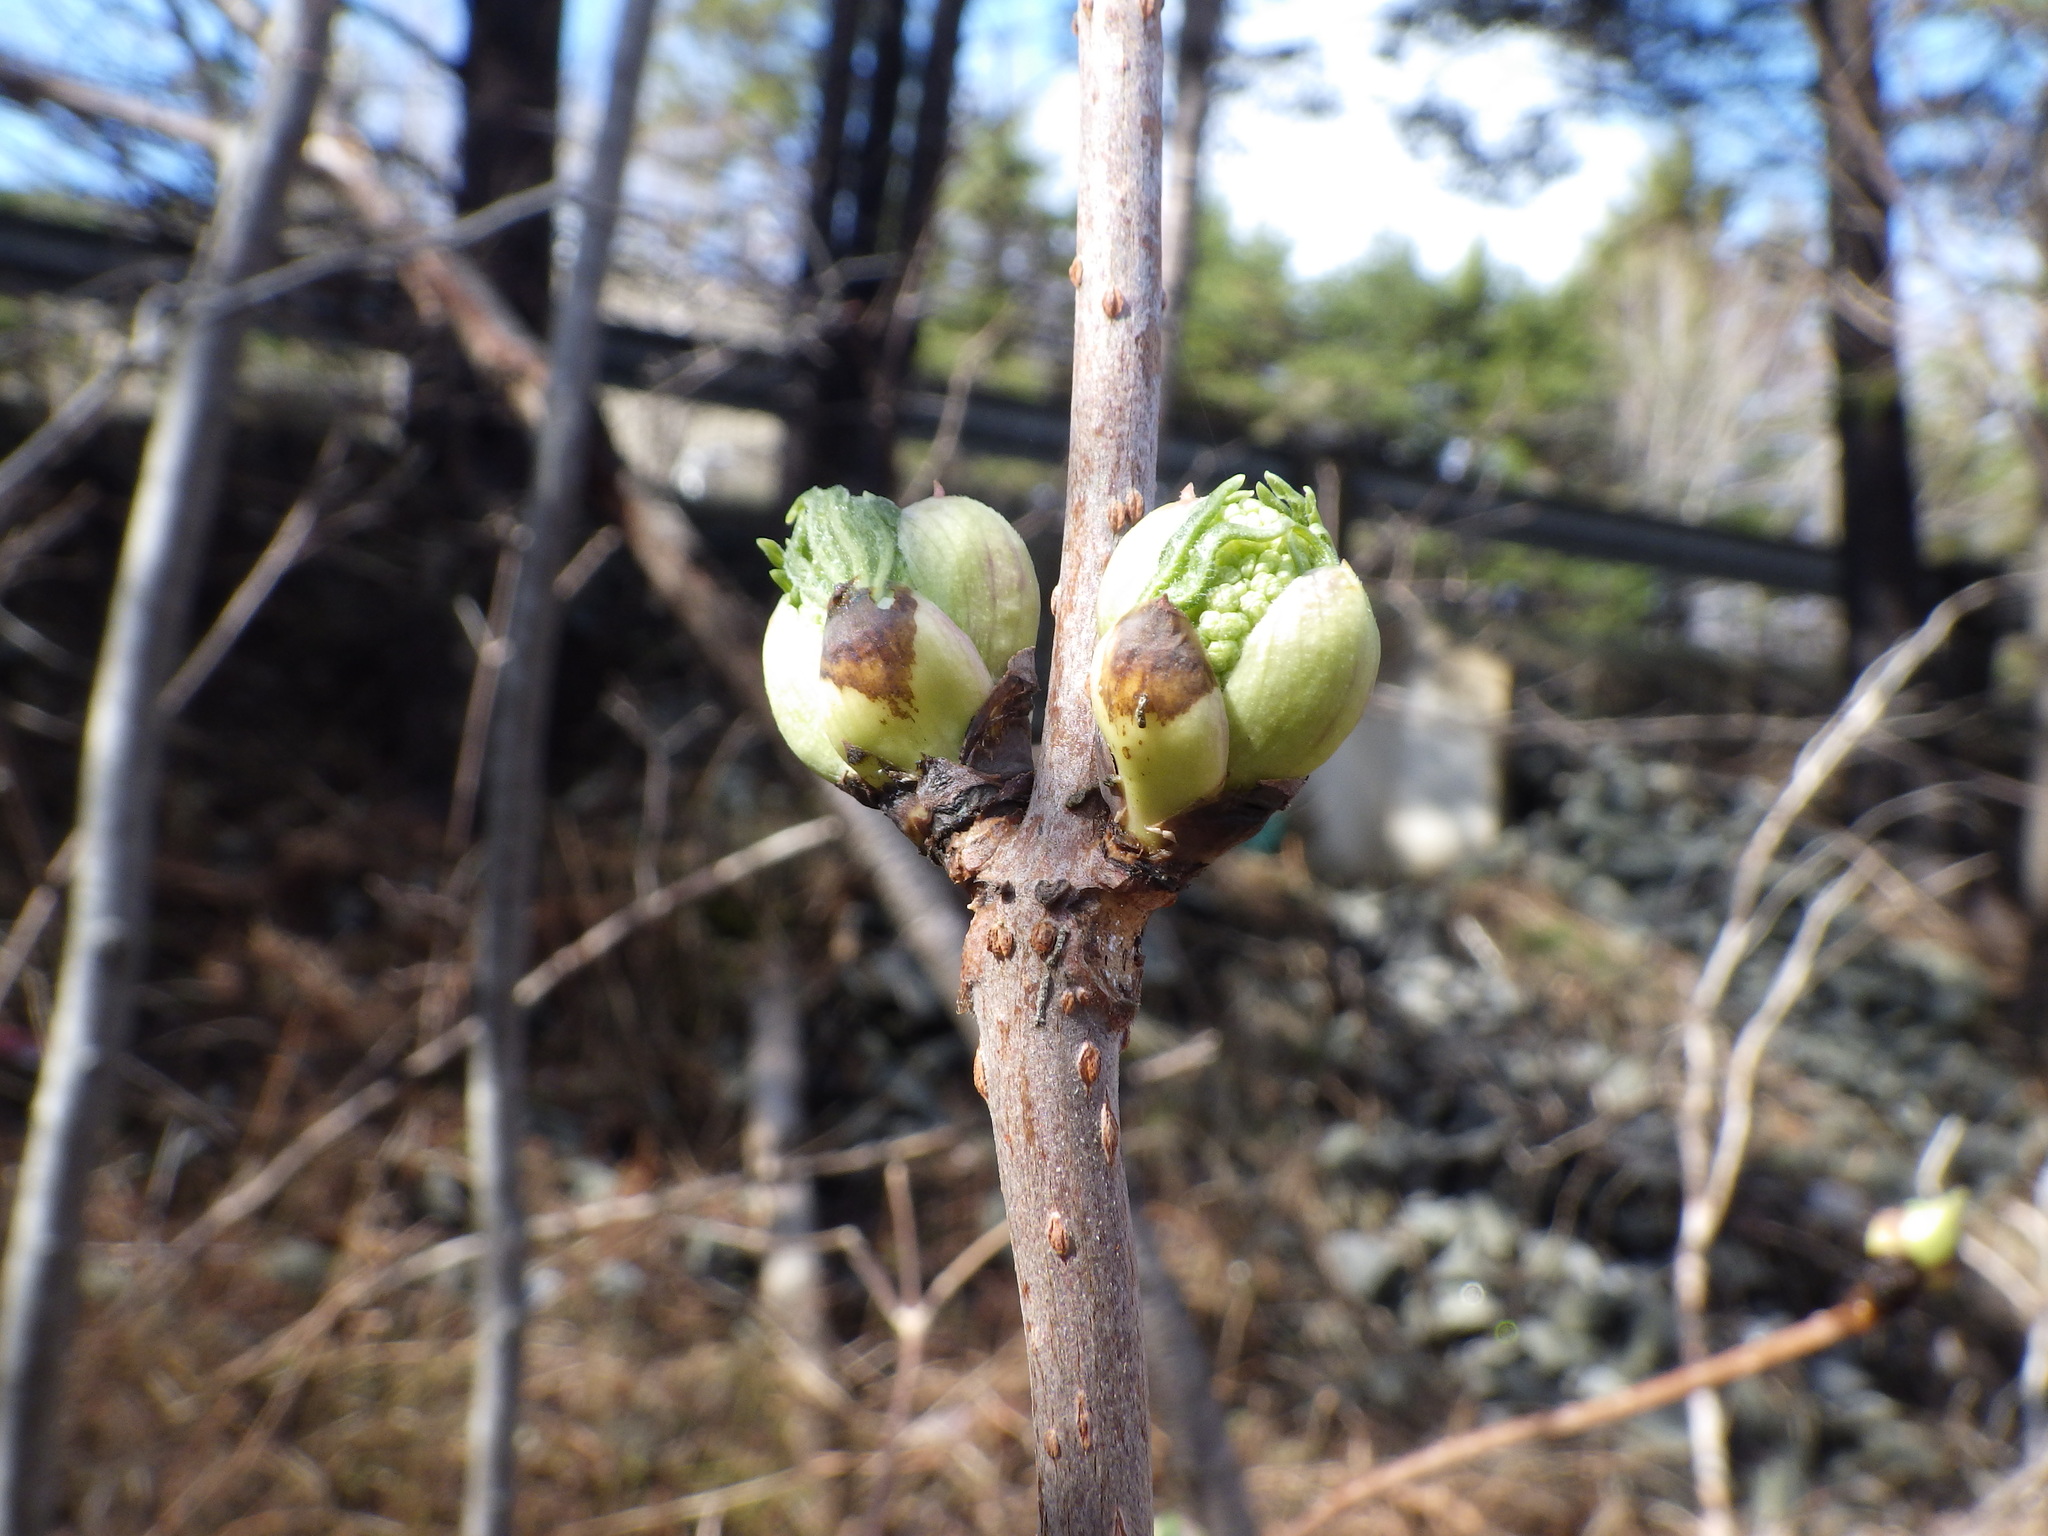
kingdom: Plantae
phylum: Tracheophyta
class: Magnoliopsida
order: Dipsacales
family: Viburnaceae
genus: Sambucus
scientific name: Sambucus racemosa
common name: Red-berried elder
